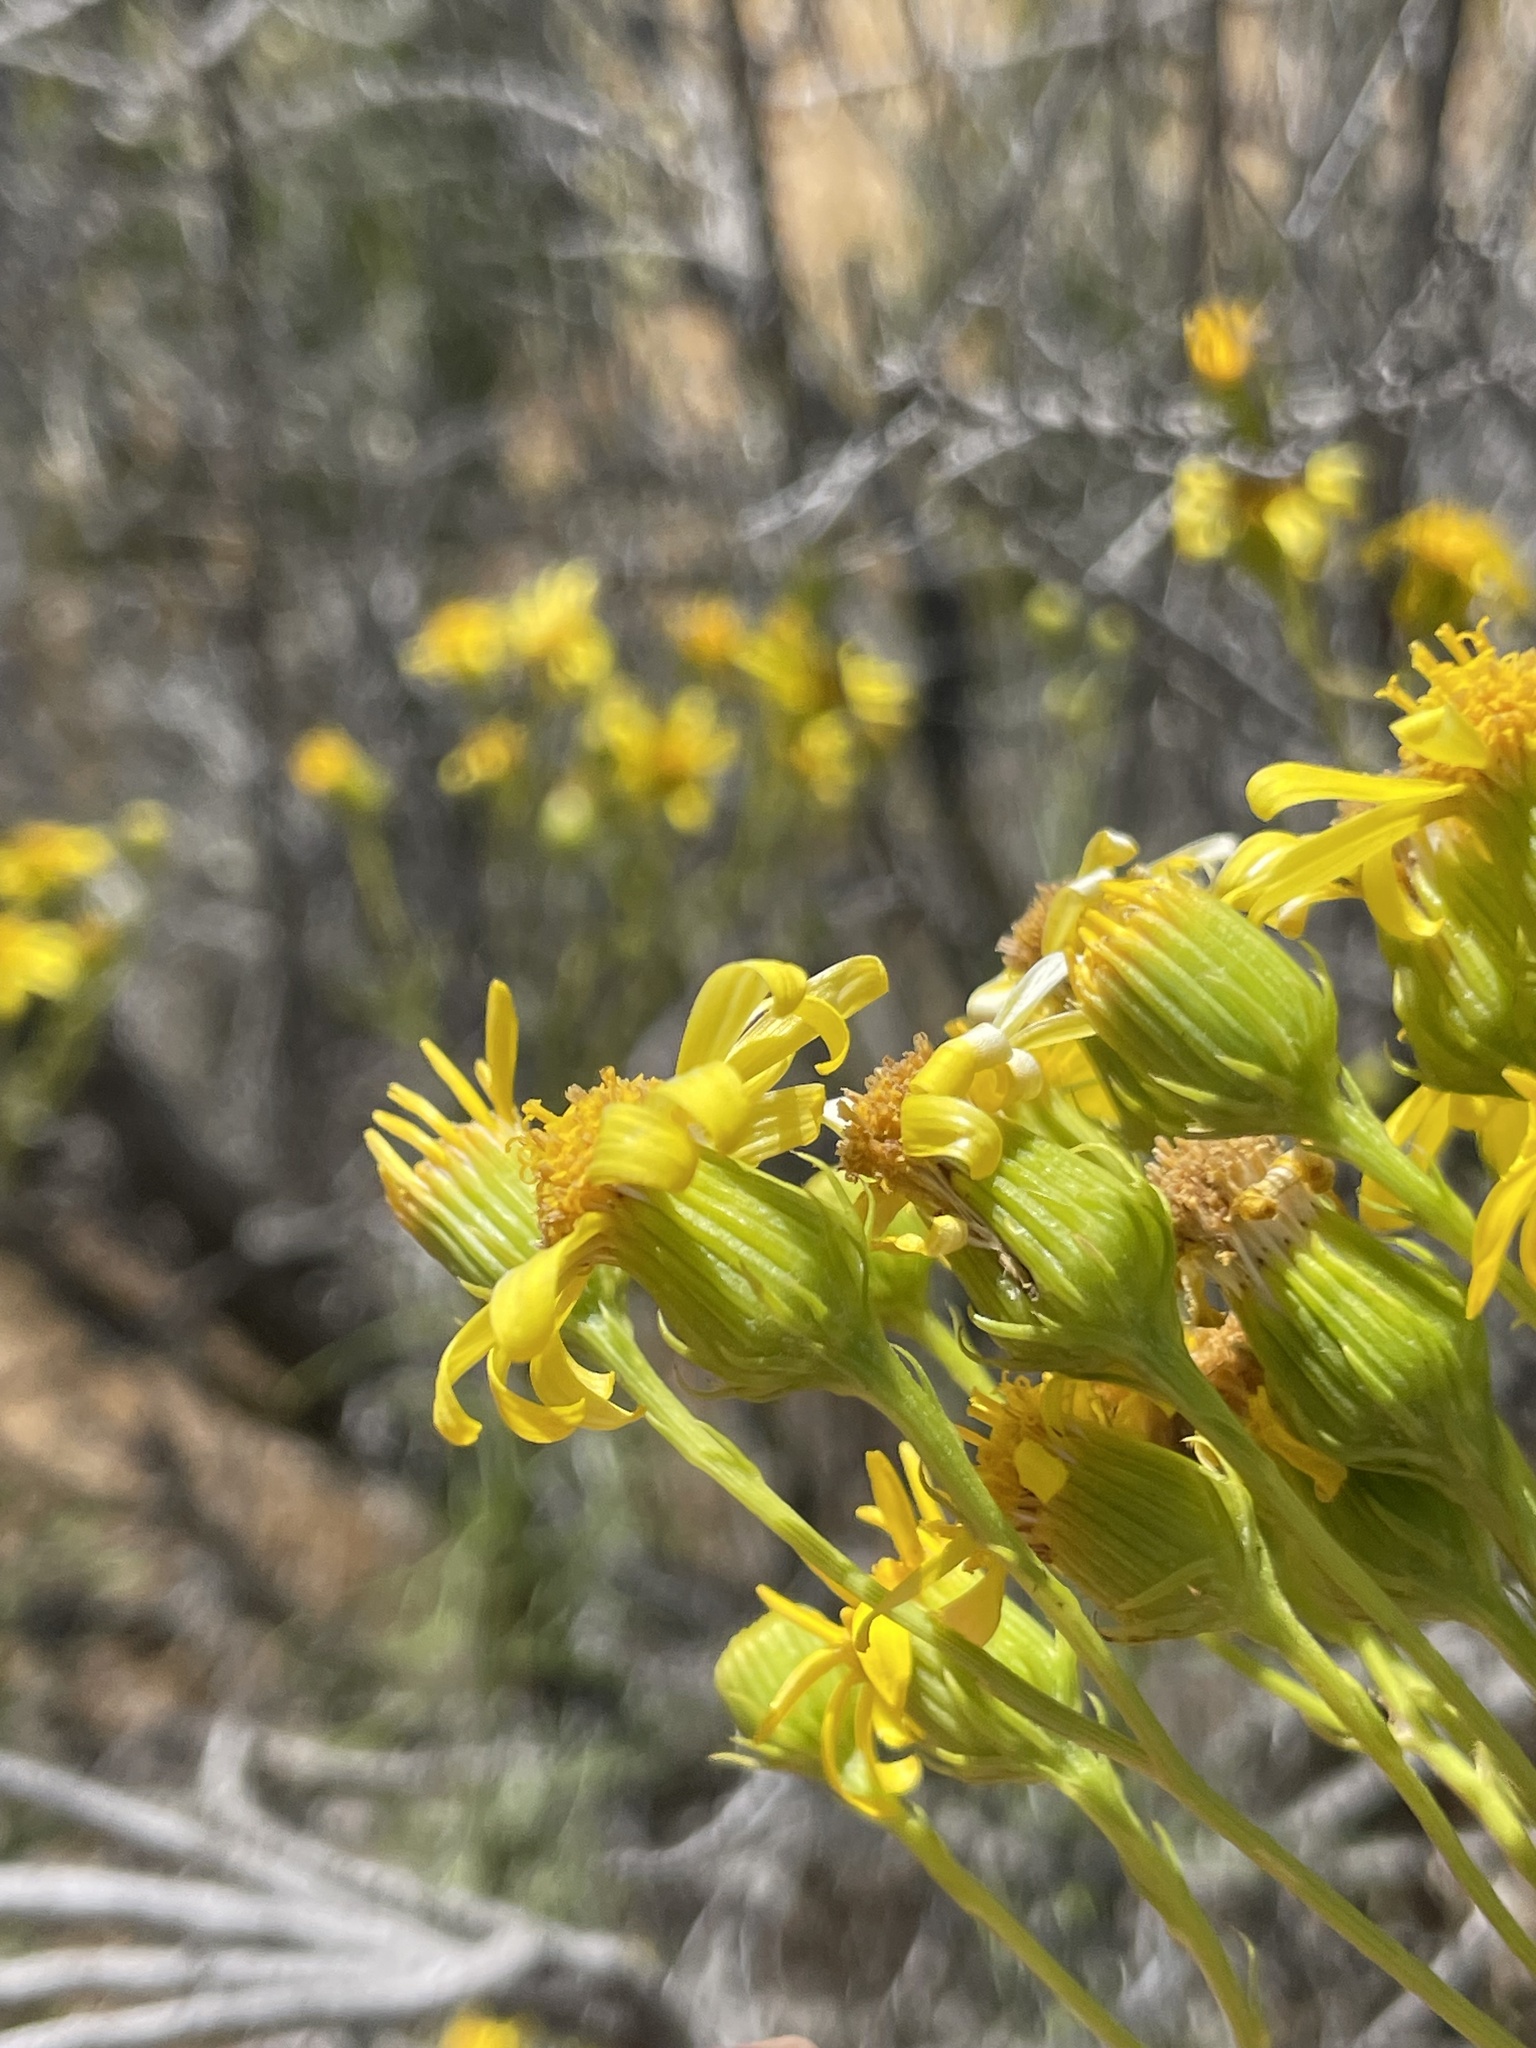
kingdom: Plantae
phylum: Tracheophyta
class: Magnoliopsida
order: Asterales
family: Asteraceae
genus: Senecio
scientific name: Senecio flaccidus
